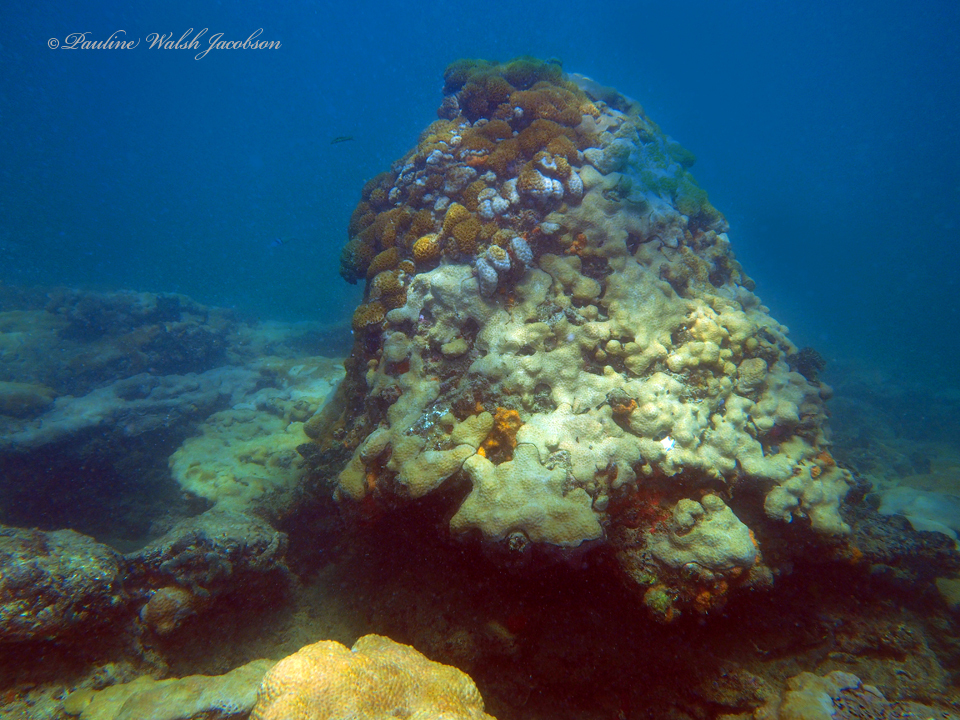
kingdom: Animalia
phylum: Cnidaria
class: Anthozoa
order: Zoantharia
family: Sphenopidae
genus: Palythoa
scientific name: Palythoa caribaeorum
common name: Encrusting colonial anemone
